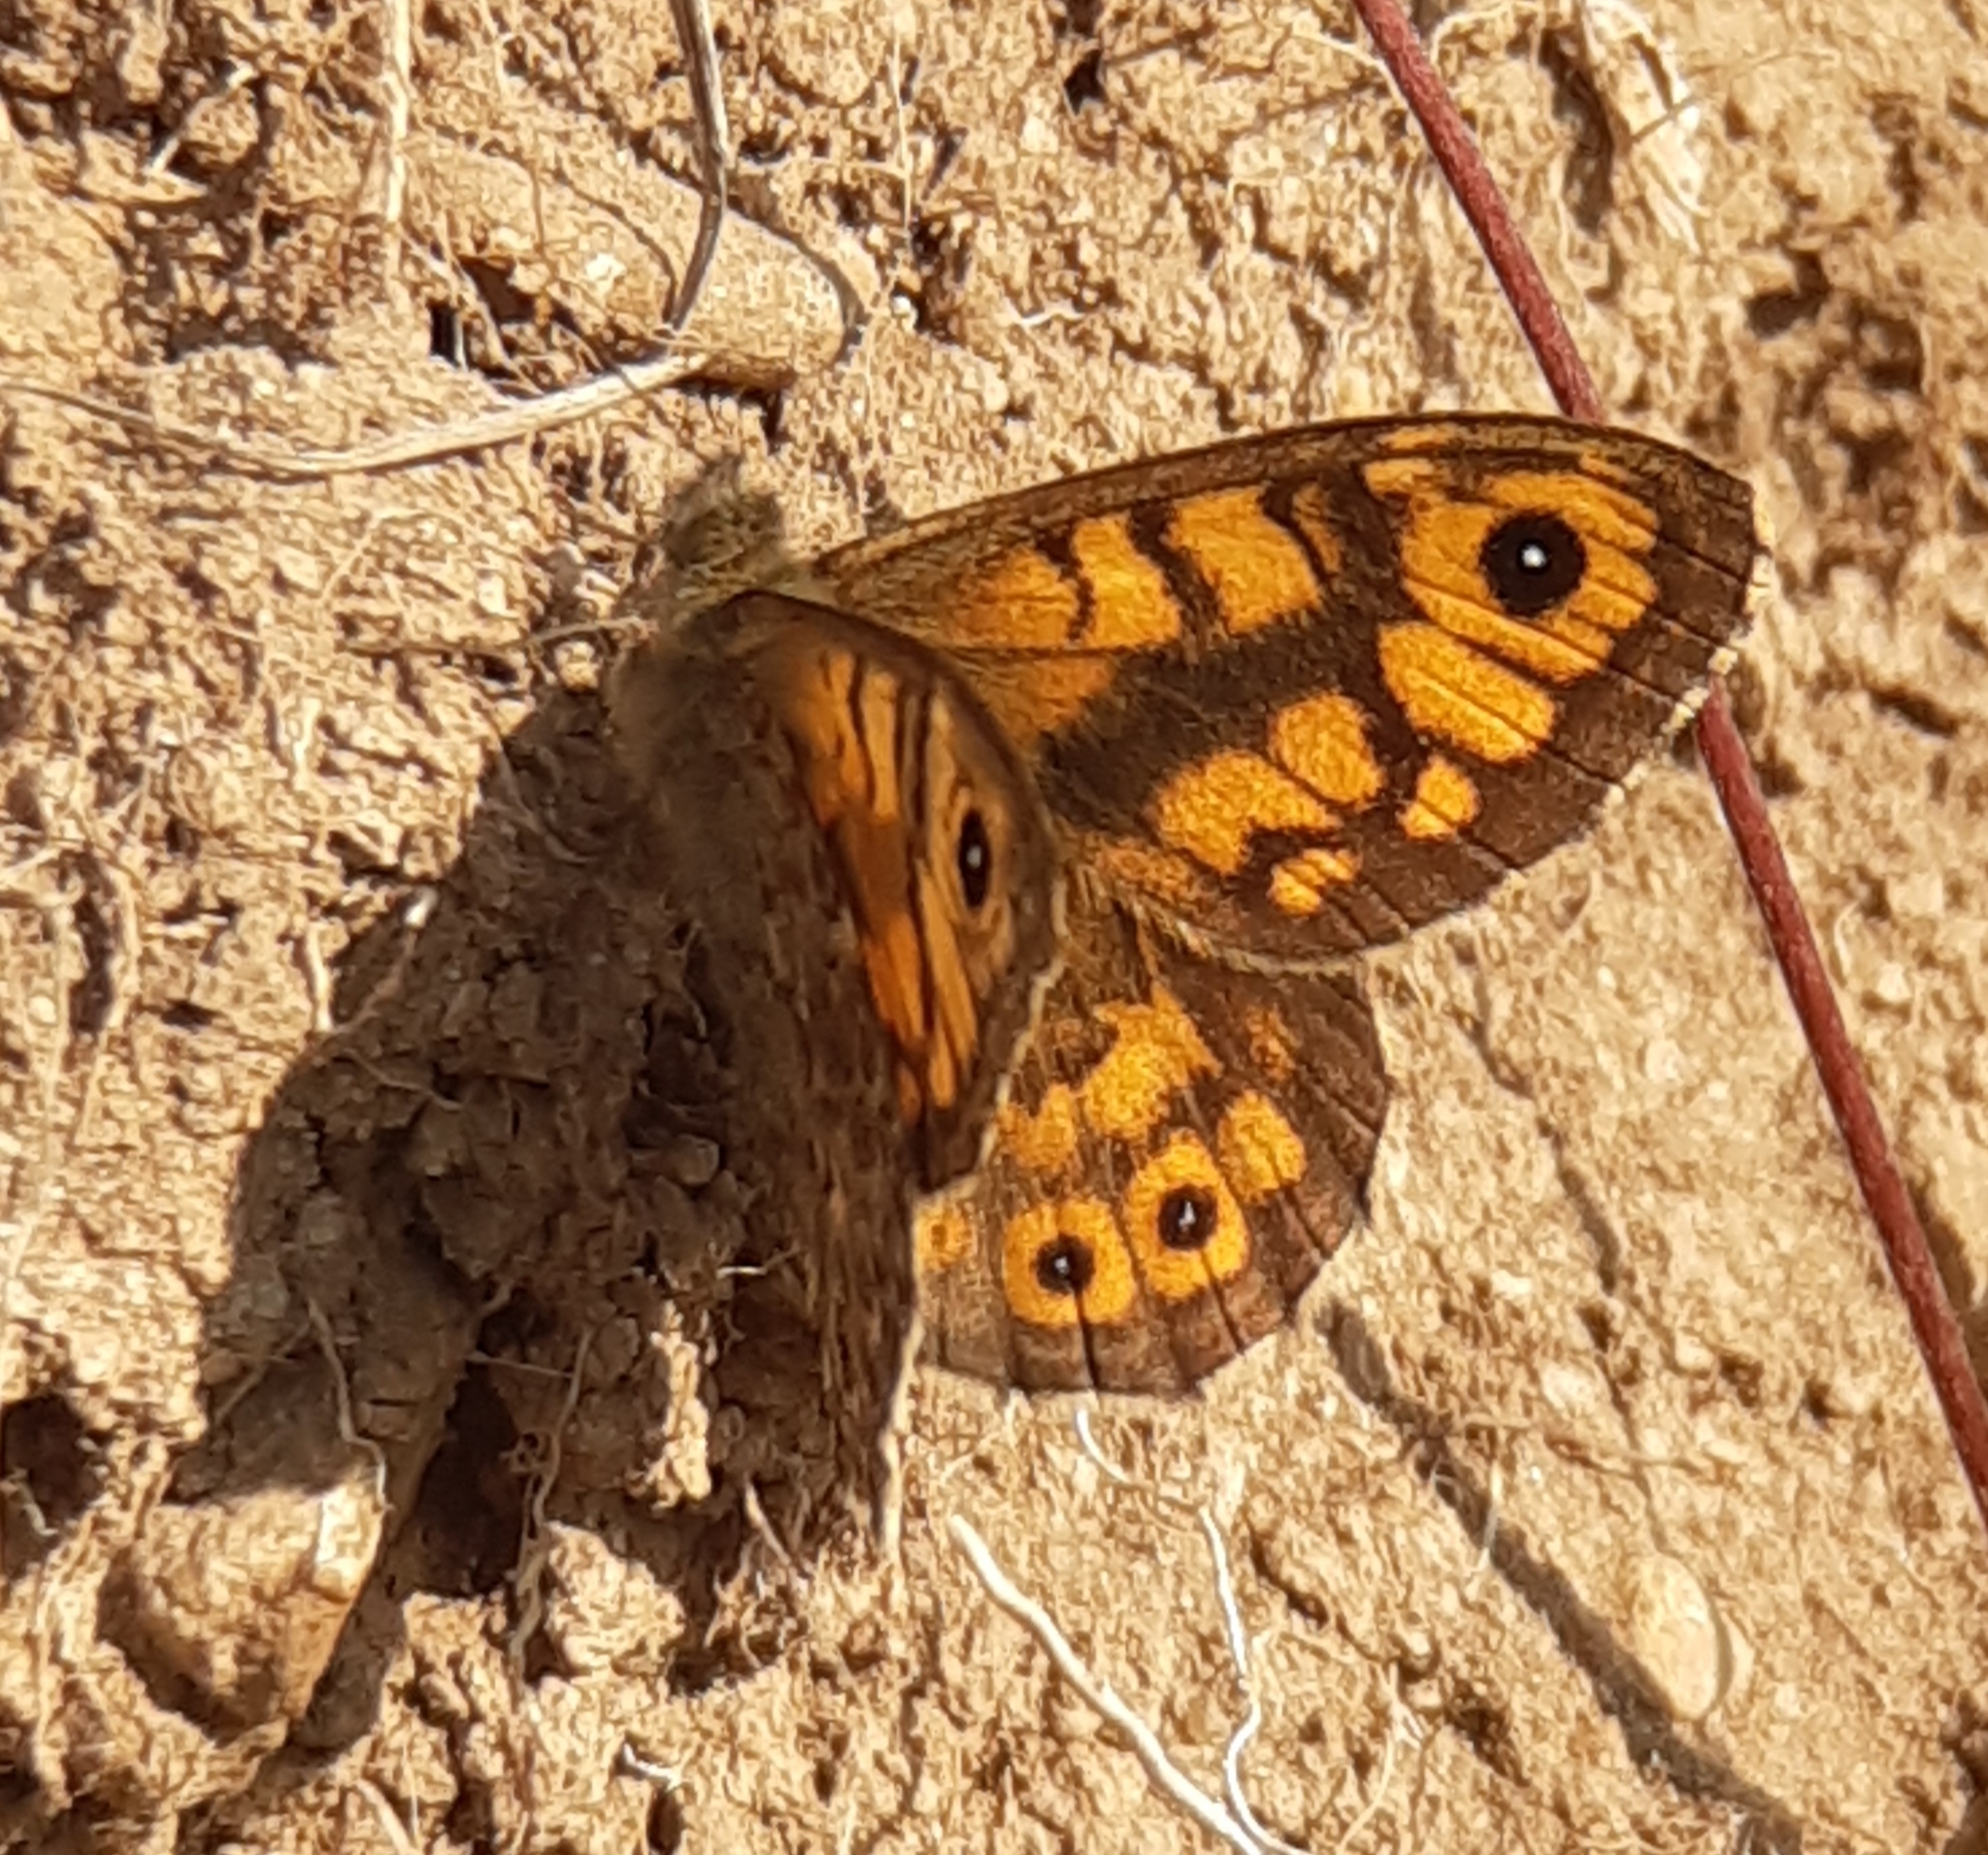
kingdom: Animalia
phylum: Arthropoda
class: Insecta
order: Lepidoptera
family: Nymphalidae
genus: Pararge
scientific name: Pararge Lasiommata megera
